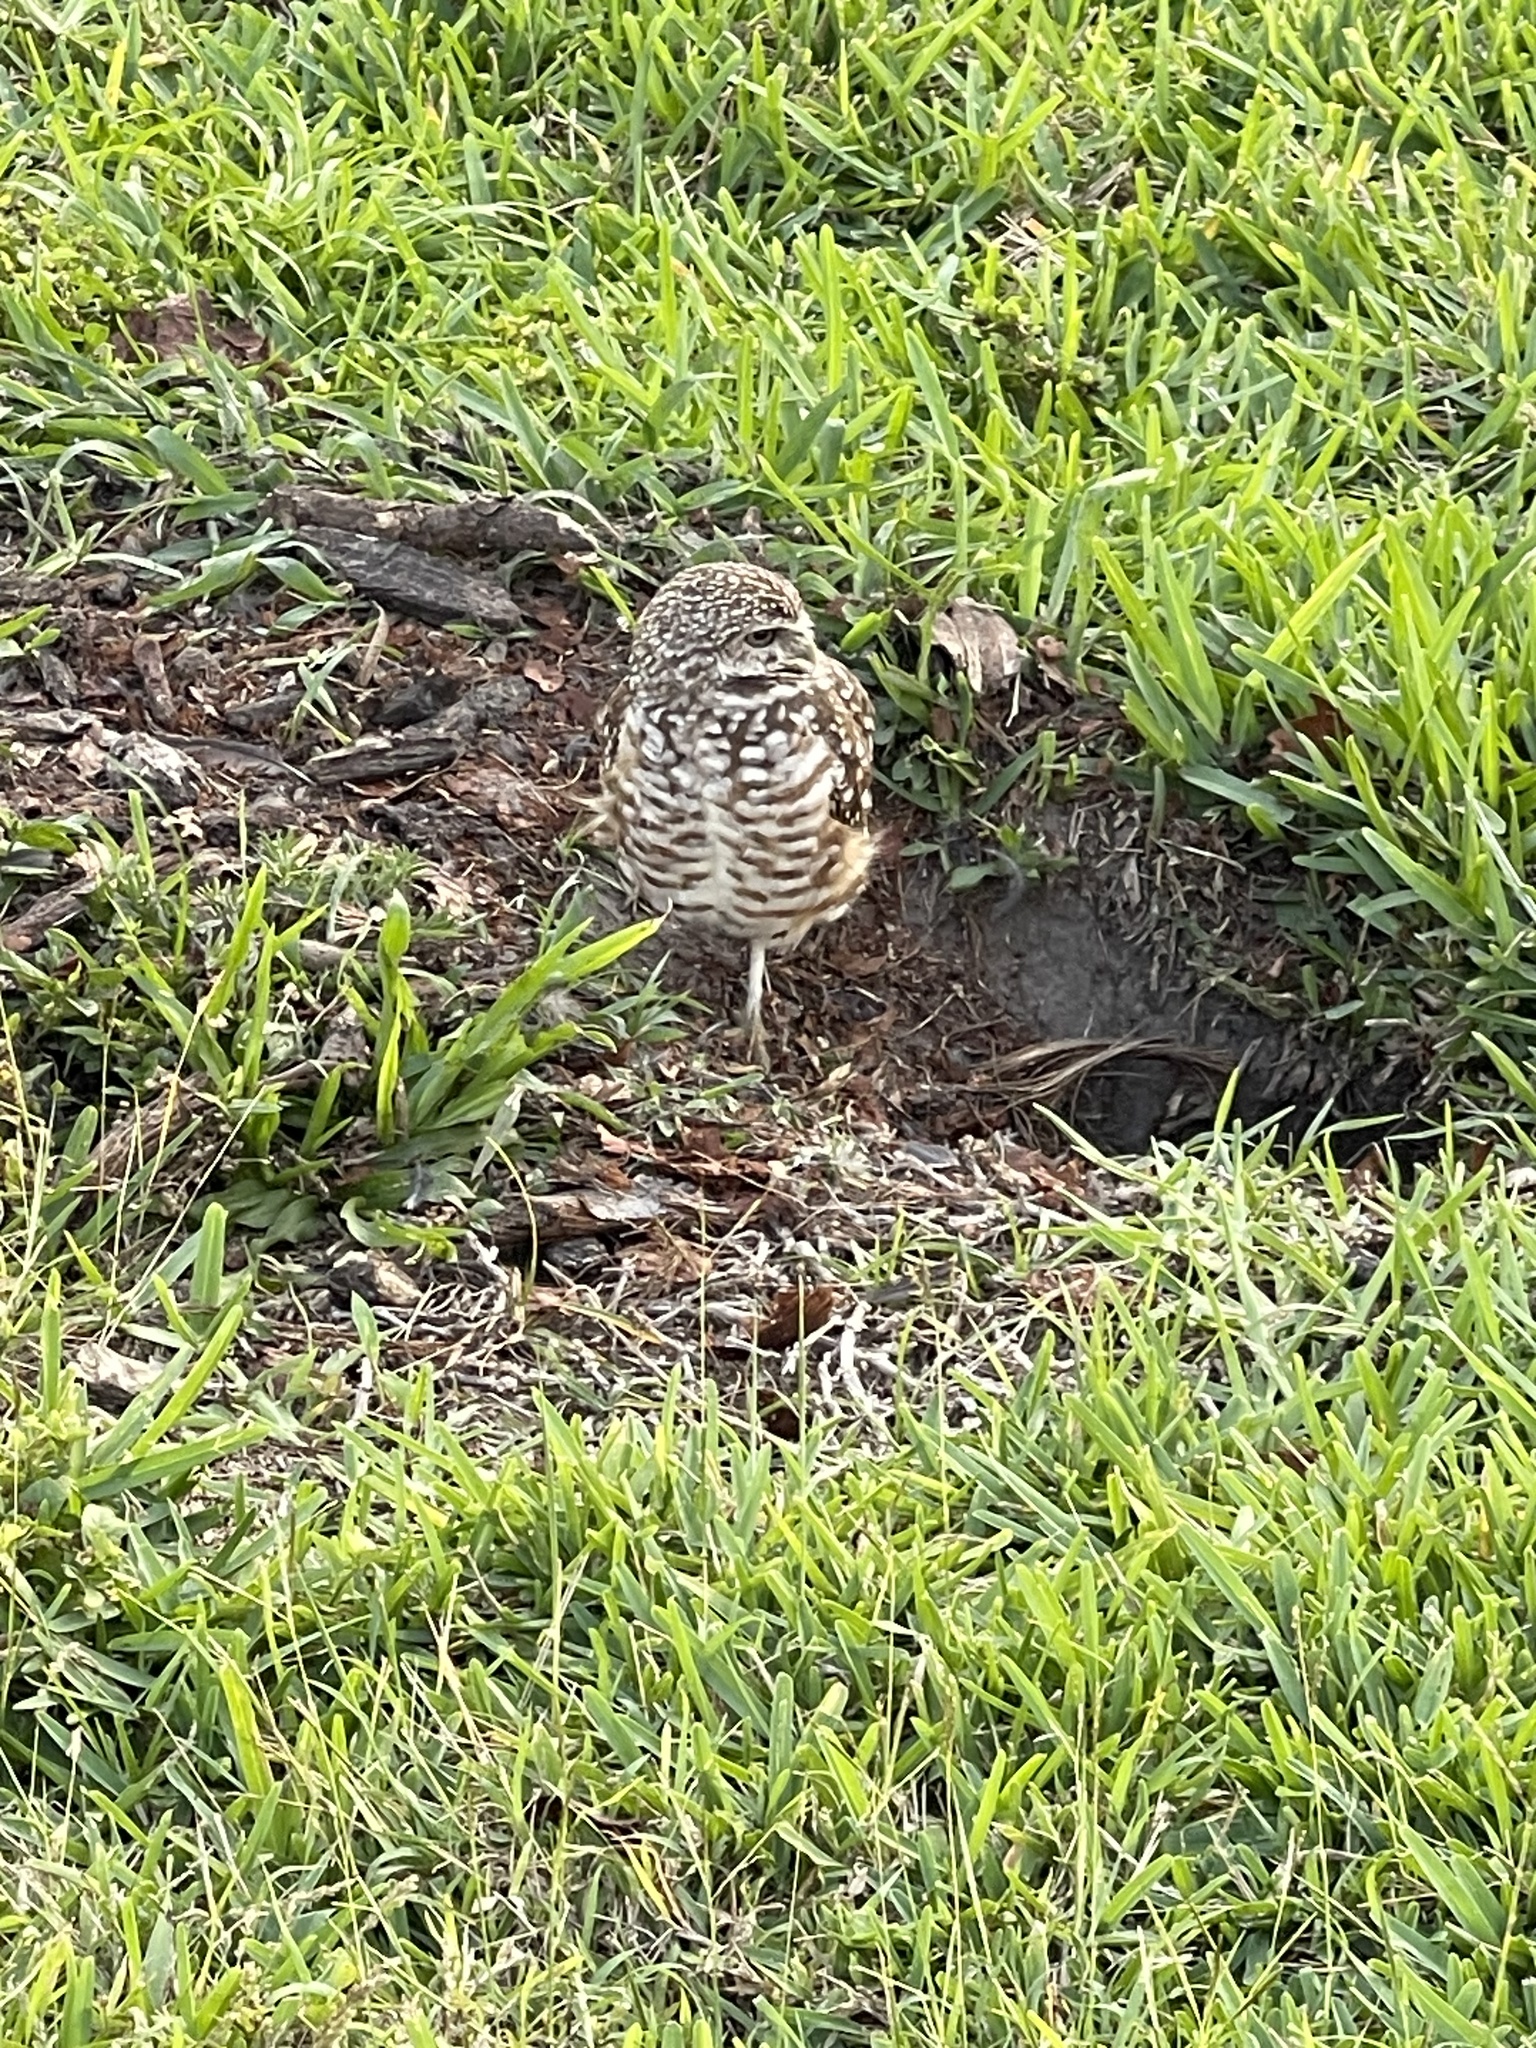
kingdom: Animalia
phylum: Chordata
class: Aves
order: Strigiformes
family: Strigidae
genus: Athene
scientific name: Athene cunicularia
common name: Burrowing owl
